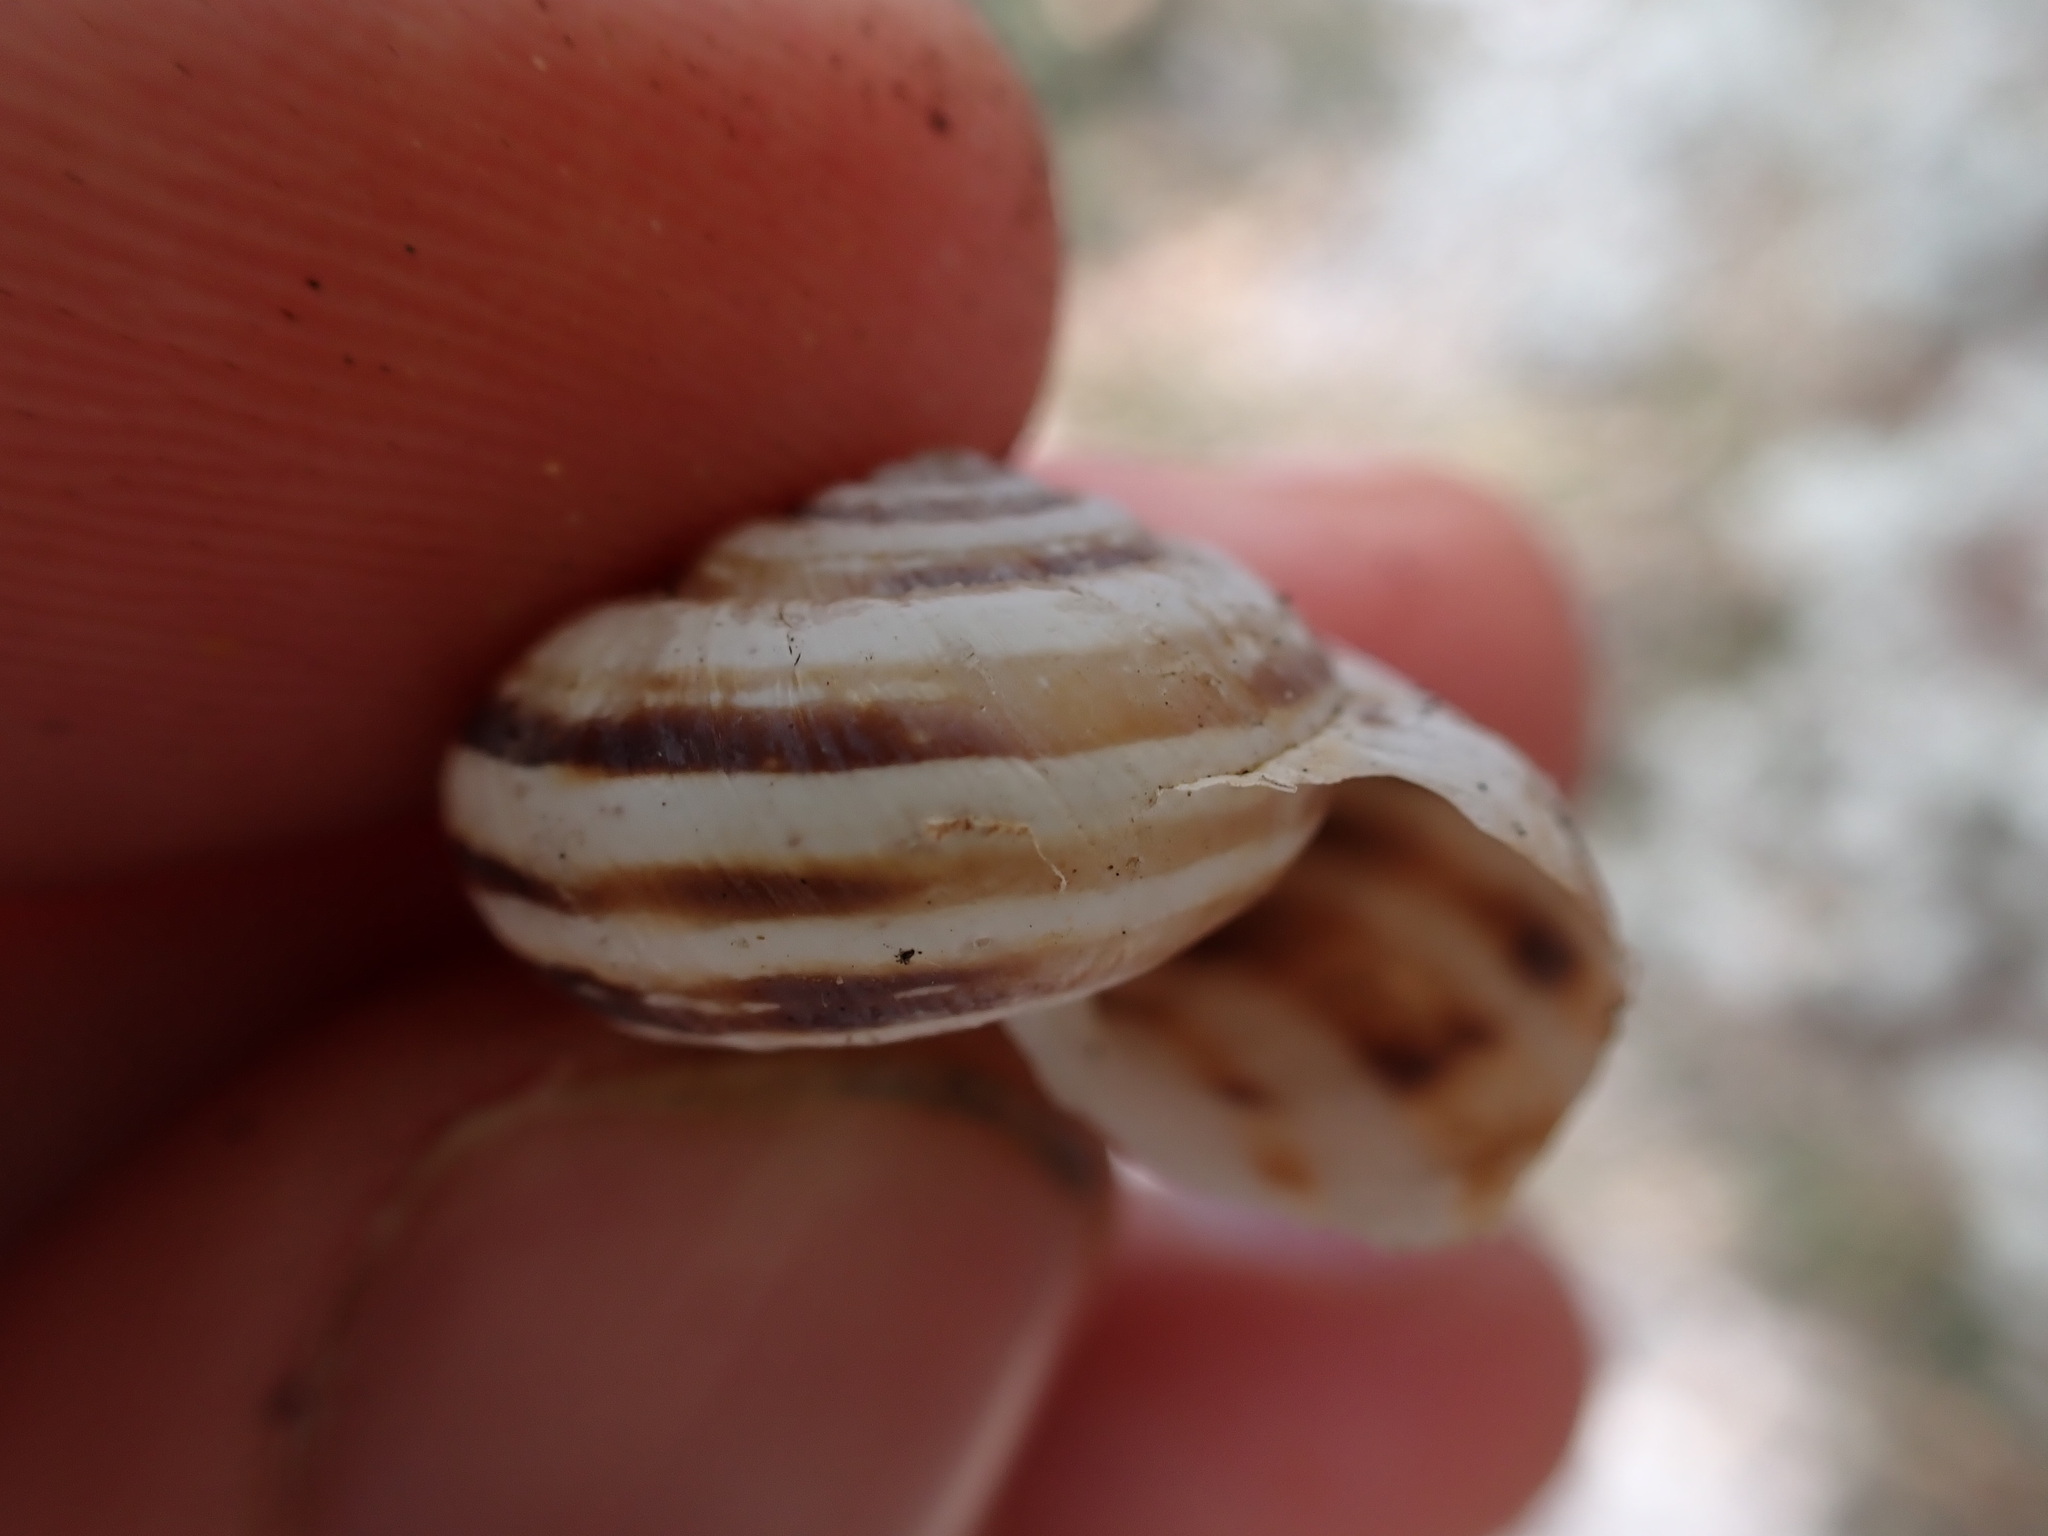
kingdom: Animalia
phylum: Mollusca
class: Gastropoda
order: Stylommatophora
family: Geomitridae
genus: Xerosecta
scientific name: Xerosecta cespitum
